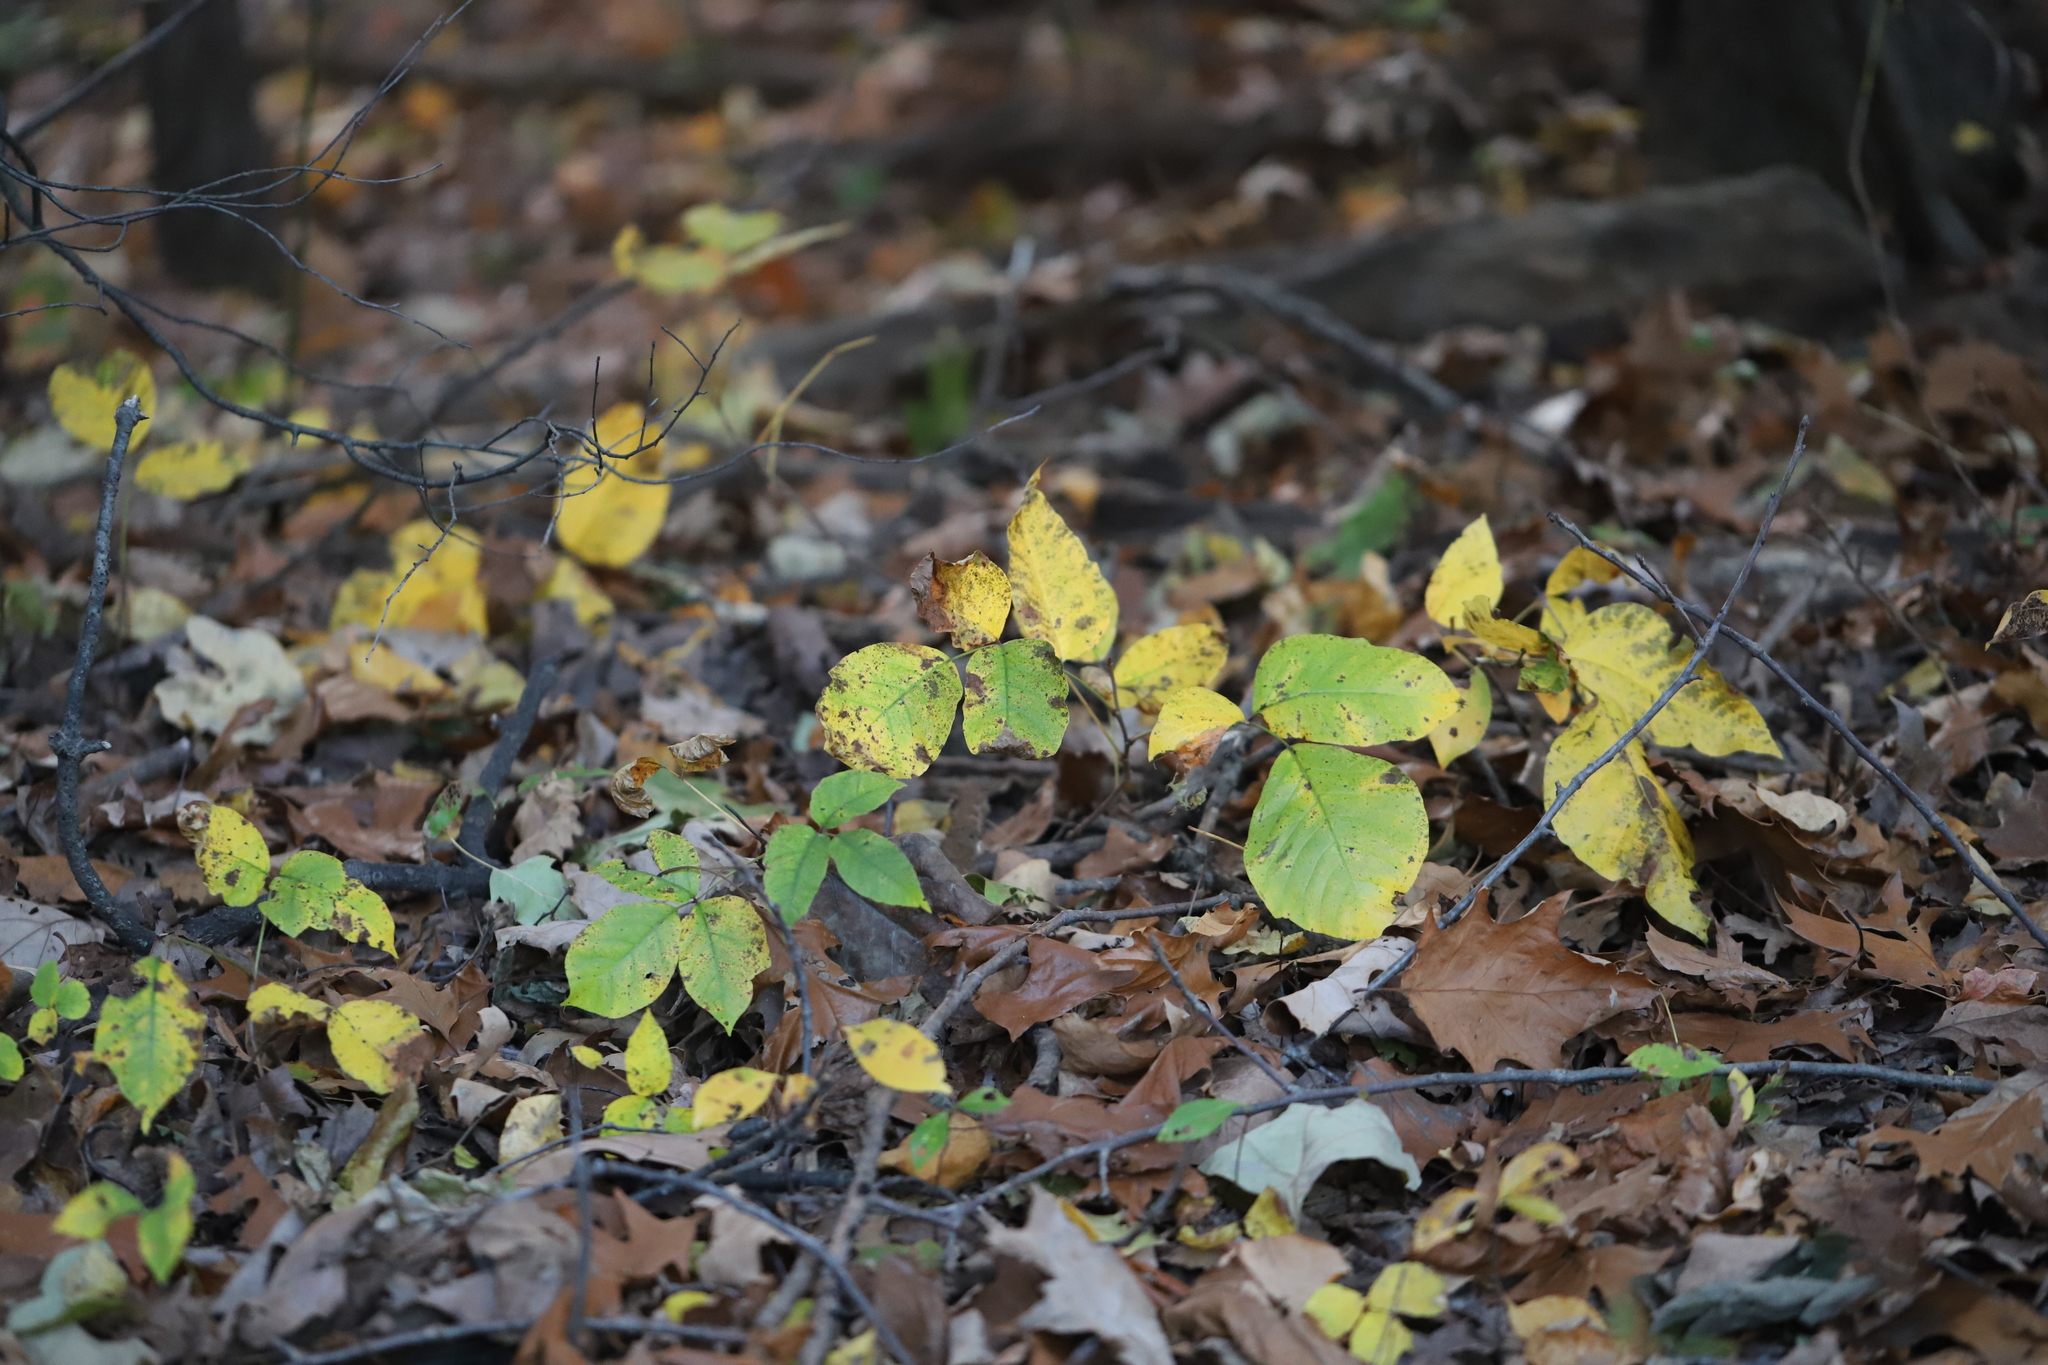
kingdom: Plantae
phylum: Tracheophyta
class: Magnoliopsida
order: Sapindales
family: Anacardiaceae
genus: Toxicodendron
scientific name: Toxicodendron radicans
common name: Poison ivy
